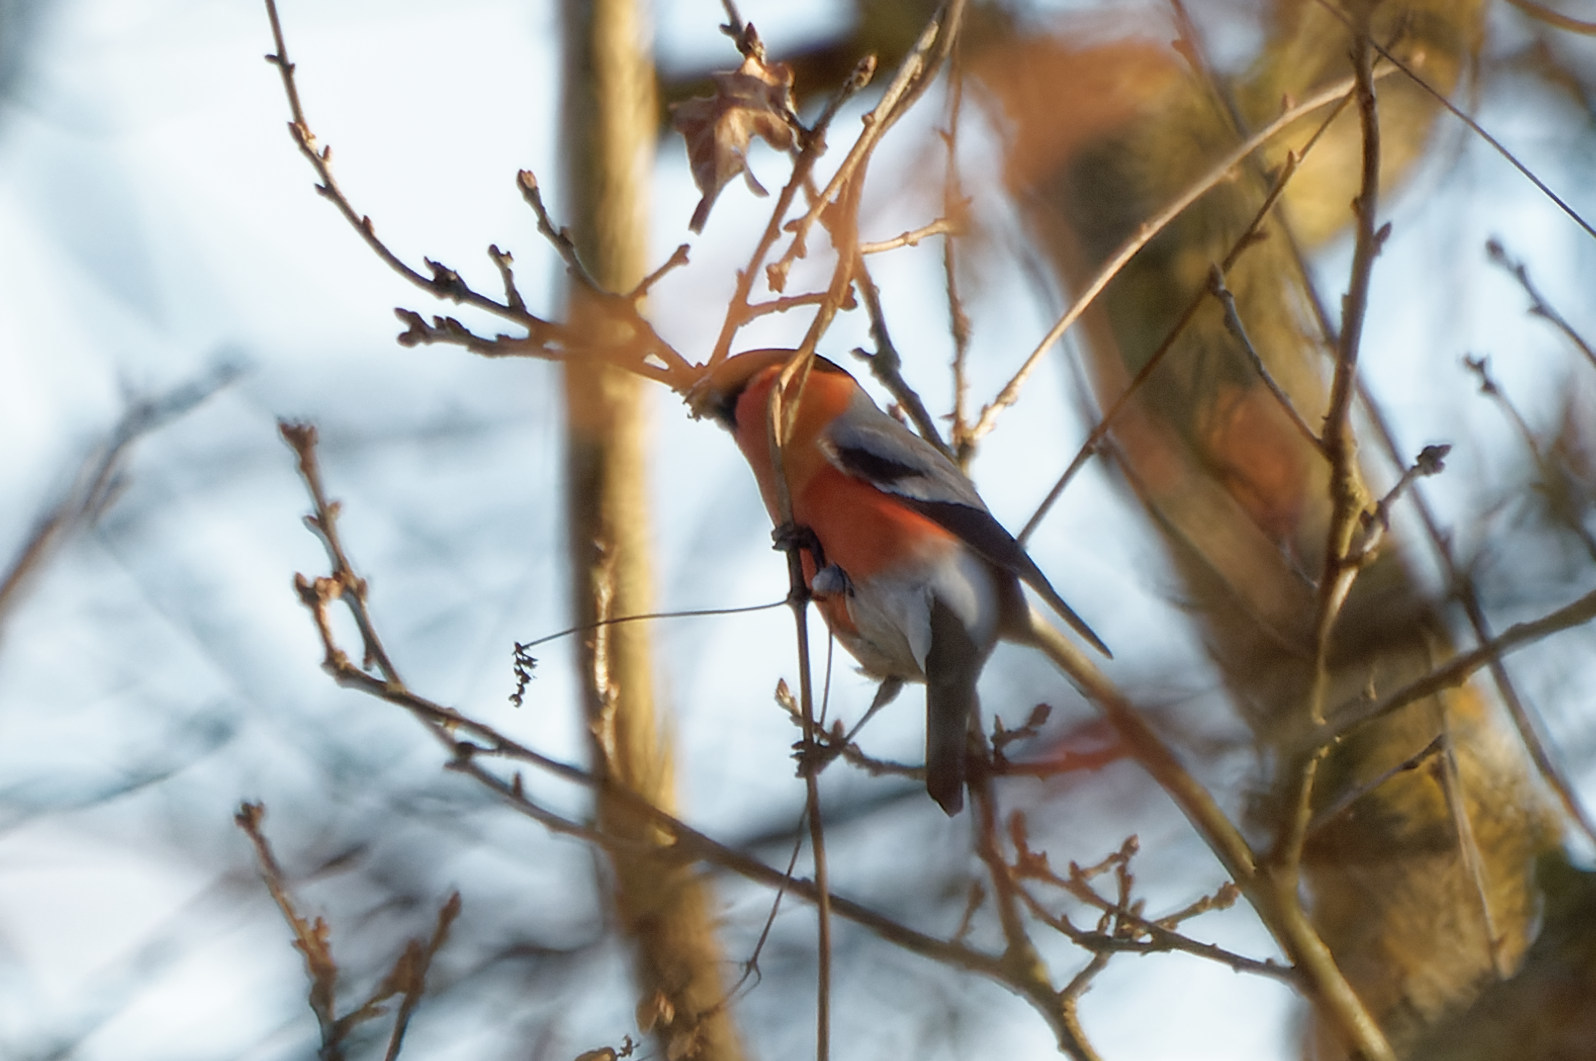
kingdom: Animalia
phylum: Chordata
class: Aves
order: Passeriformes
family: Fringillidae
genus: Pyrrhula
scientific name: Pyrrhula pyrrhula
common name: Eurasian bullfinch
